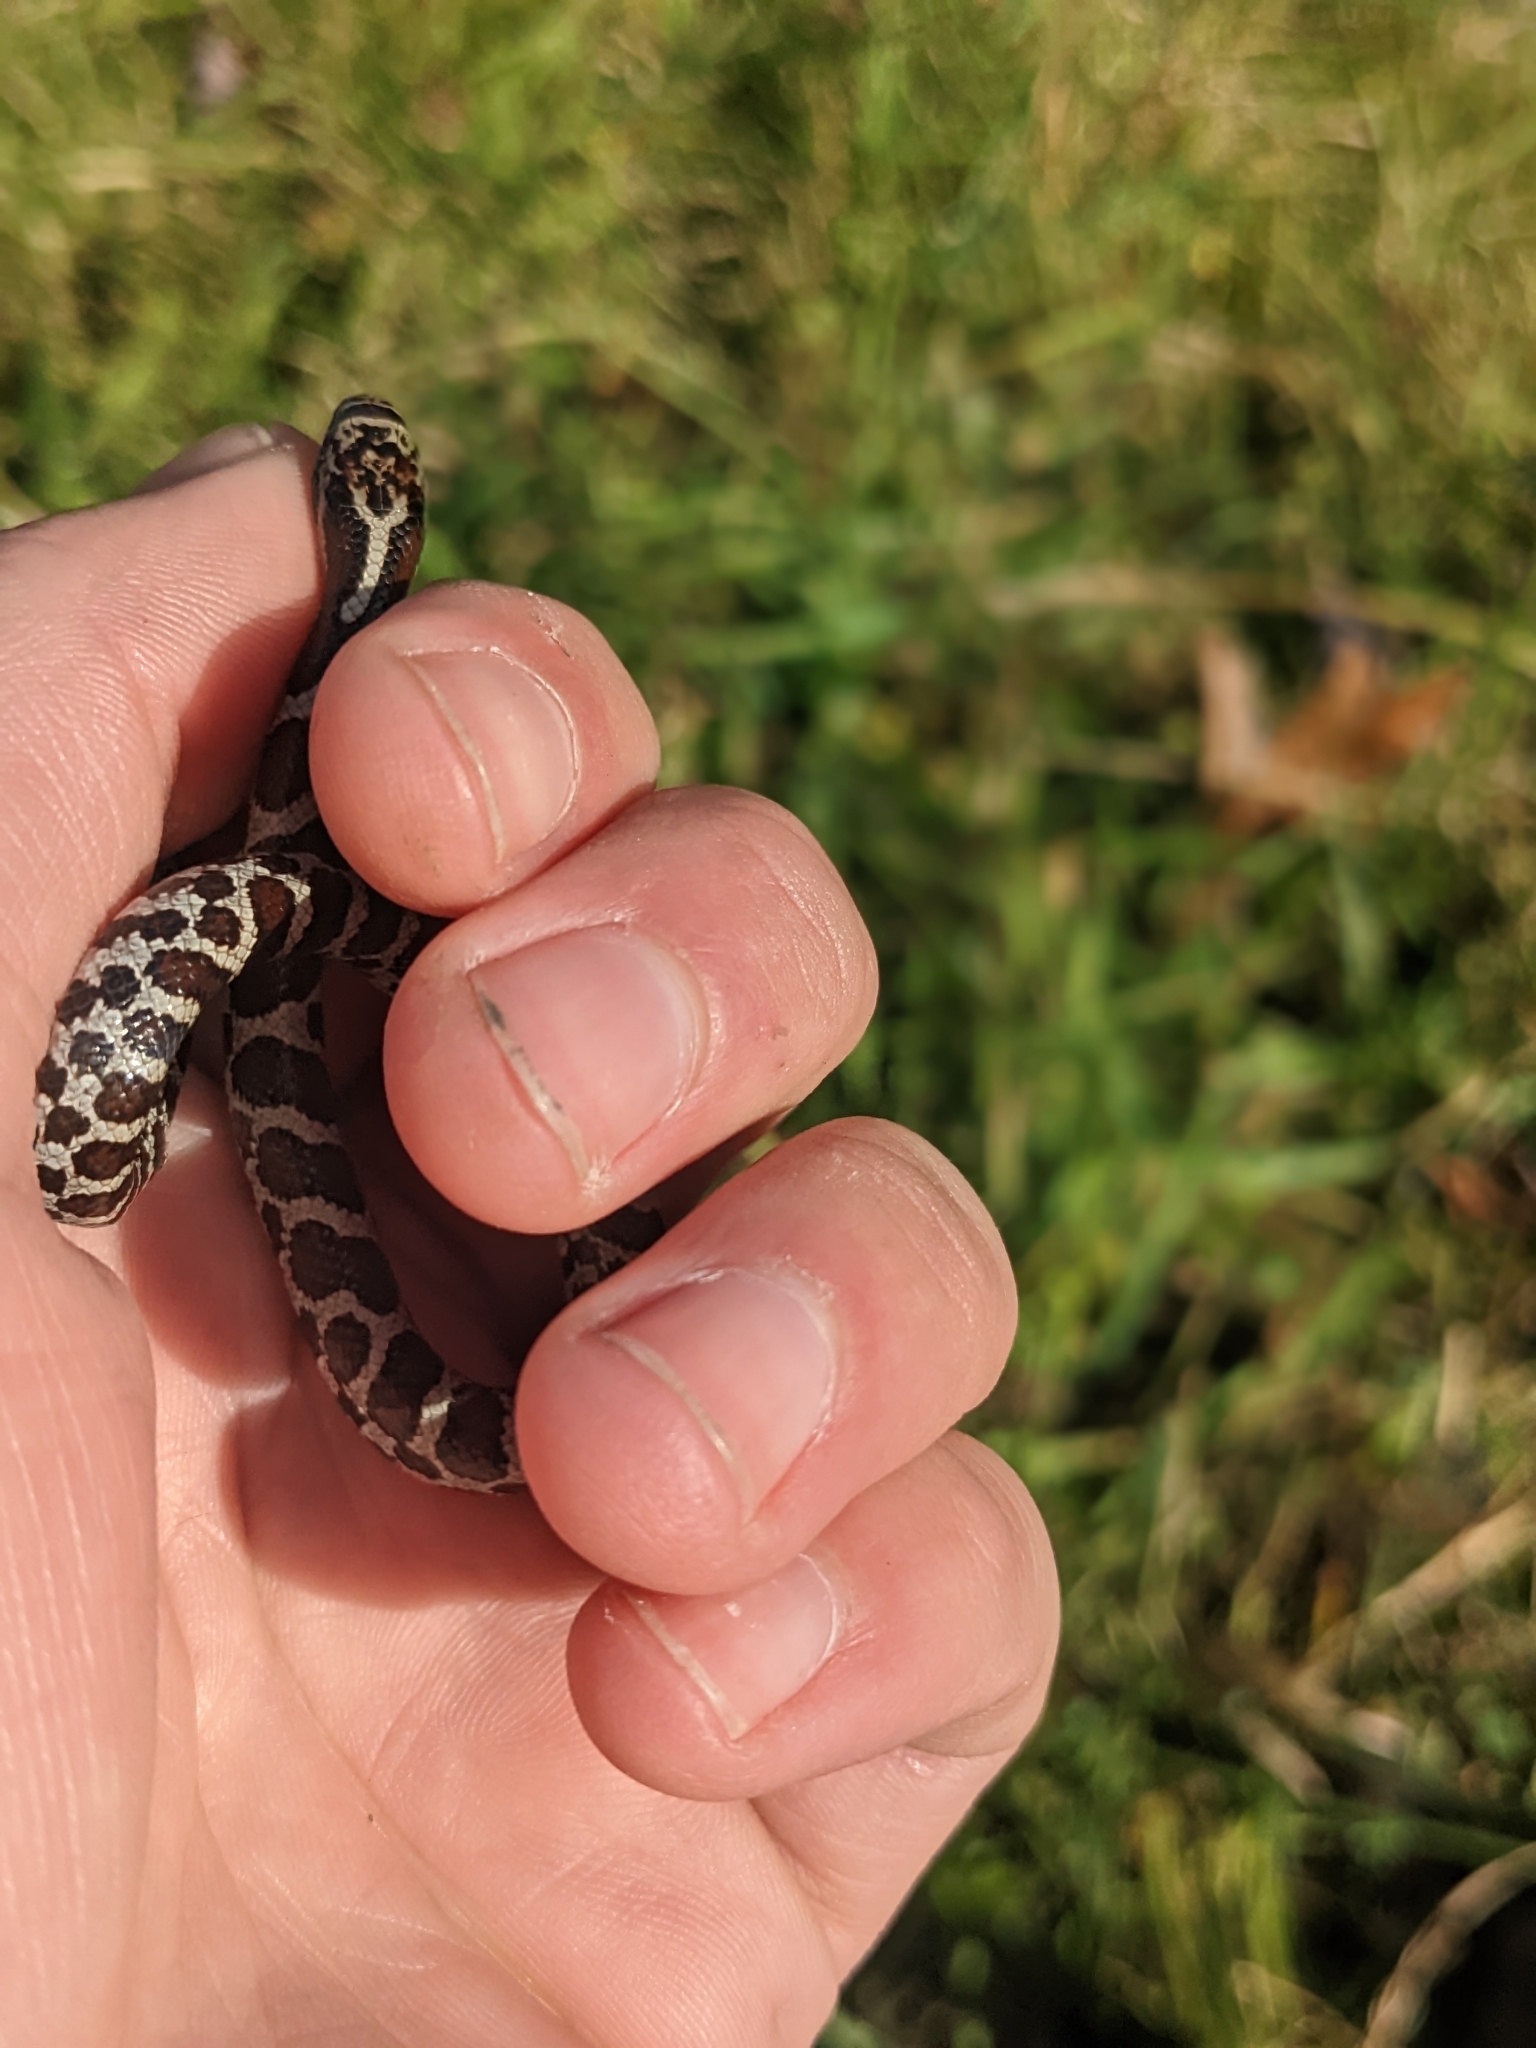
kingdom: Animalia
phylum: Chordata
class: Squamata
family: Colubridae
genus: Lampropeltis
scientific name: Lampropeltis triangulum
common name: Eastern milksnake
